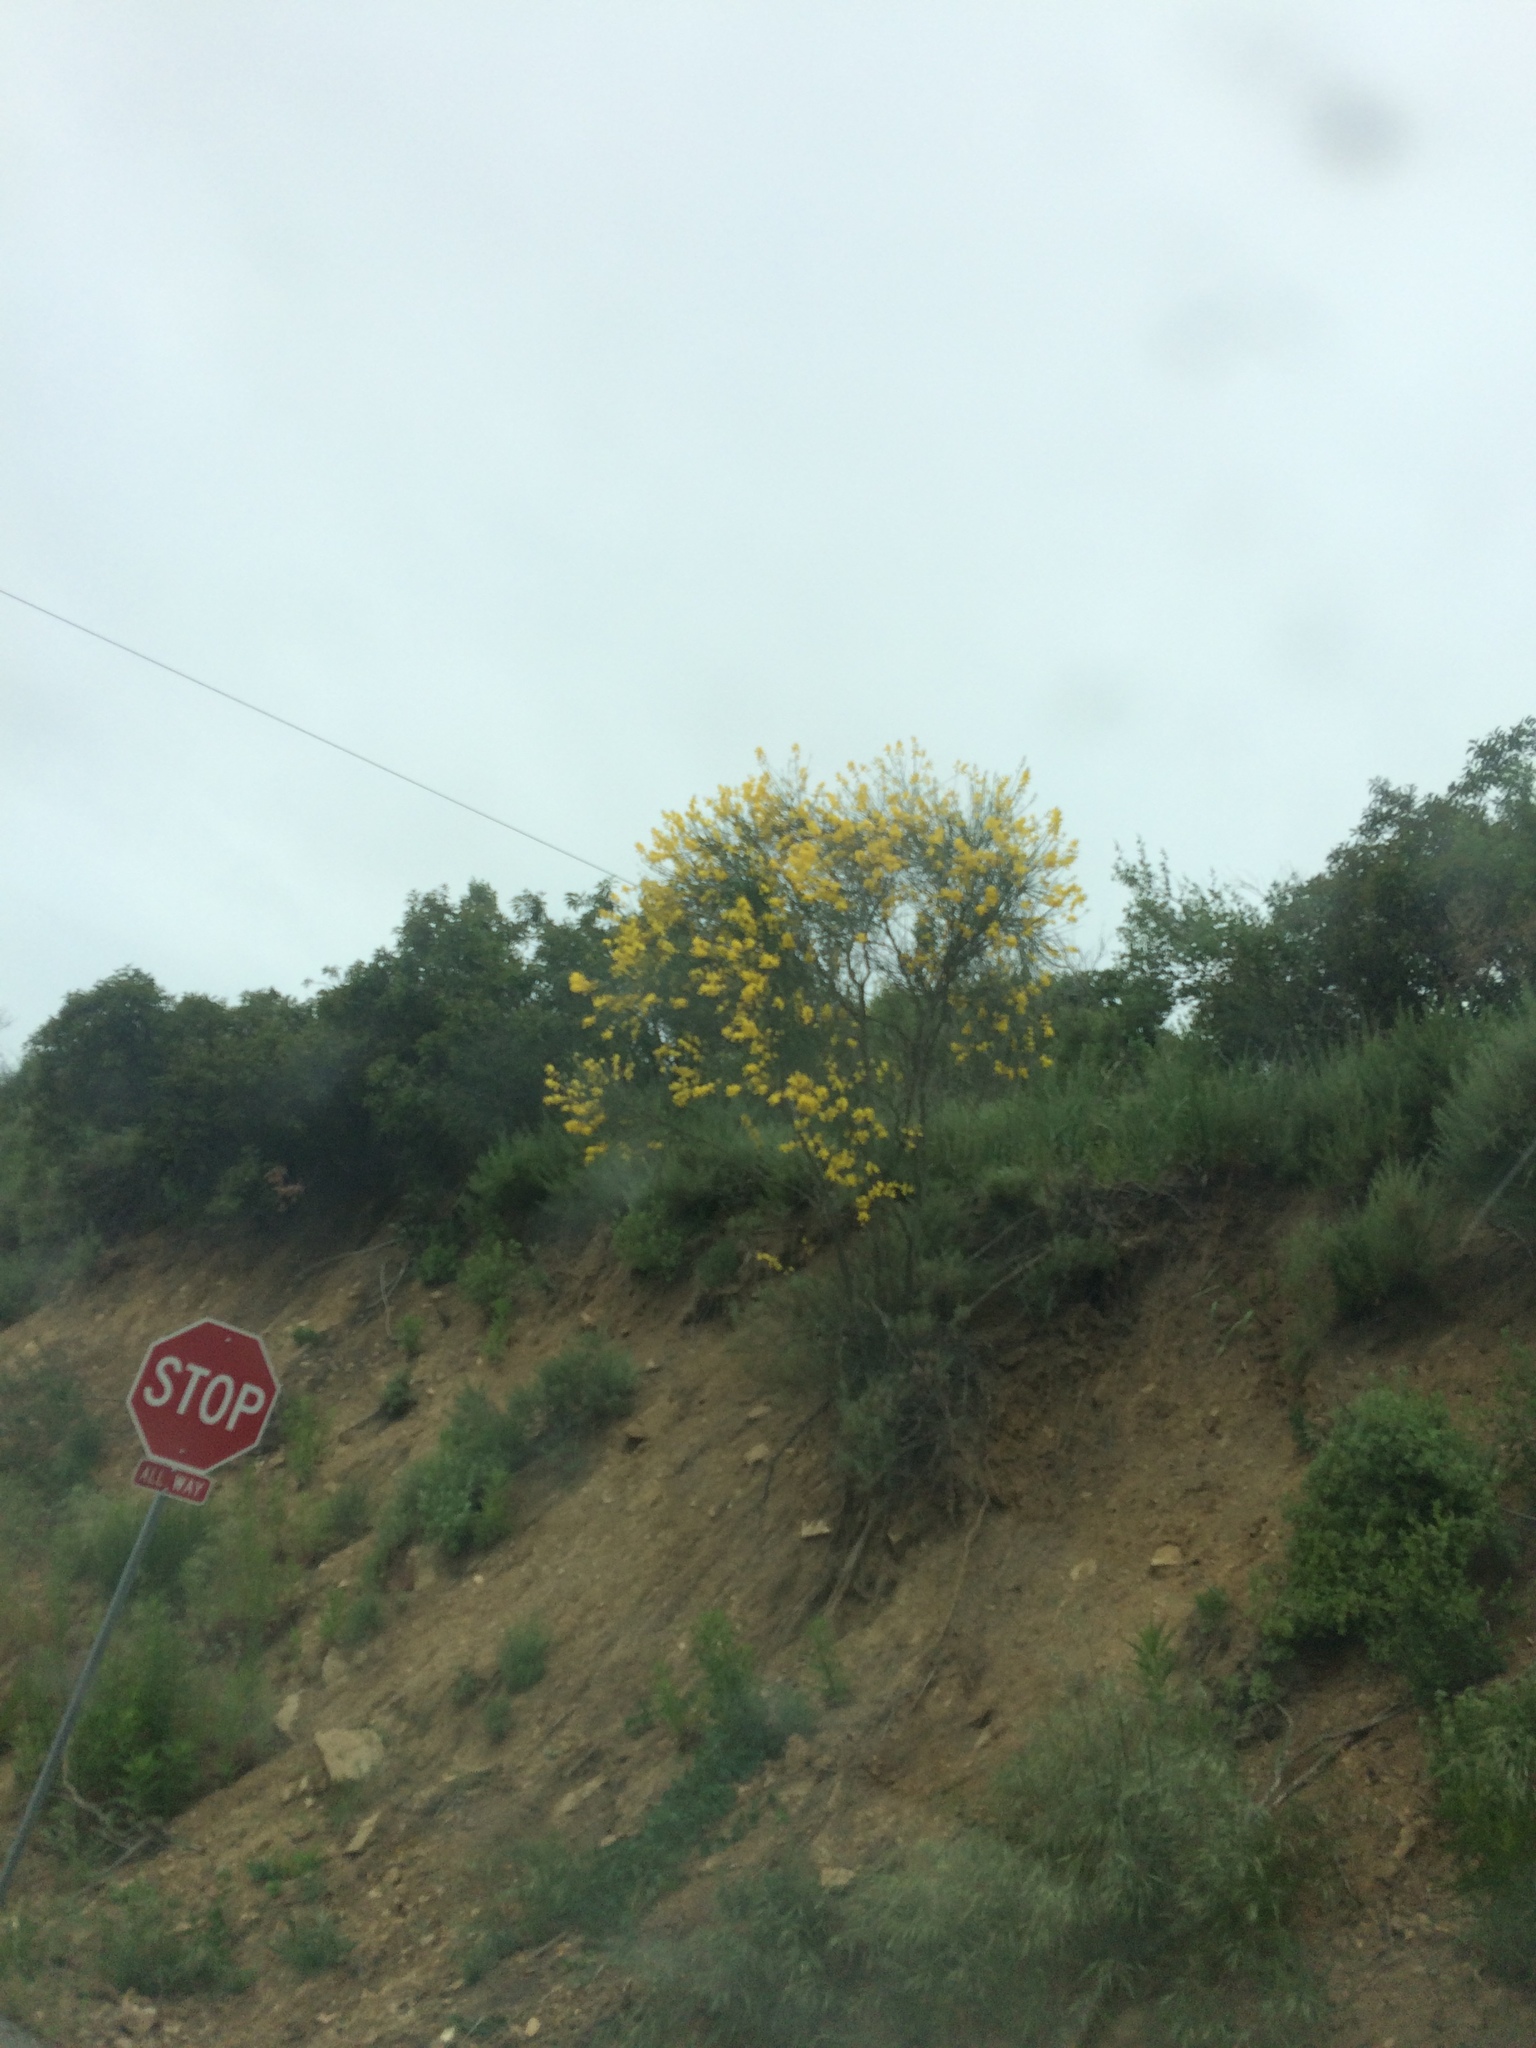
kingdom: Plantae
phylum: Tracheophyta
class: Magnoliopsida
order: Fabales
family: Fabaceae
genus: Spartium
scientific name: Spartium junceum
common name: Spanish broom
